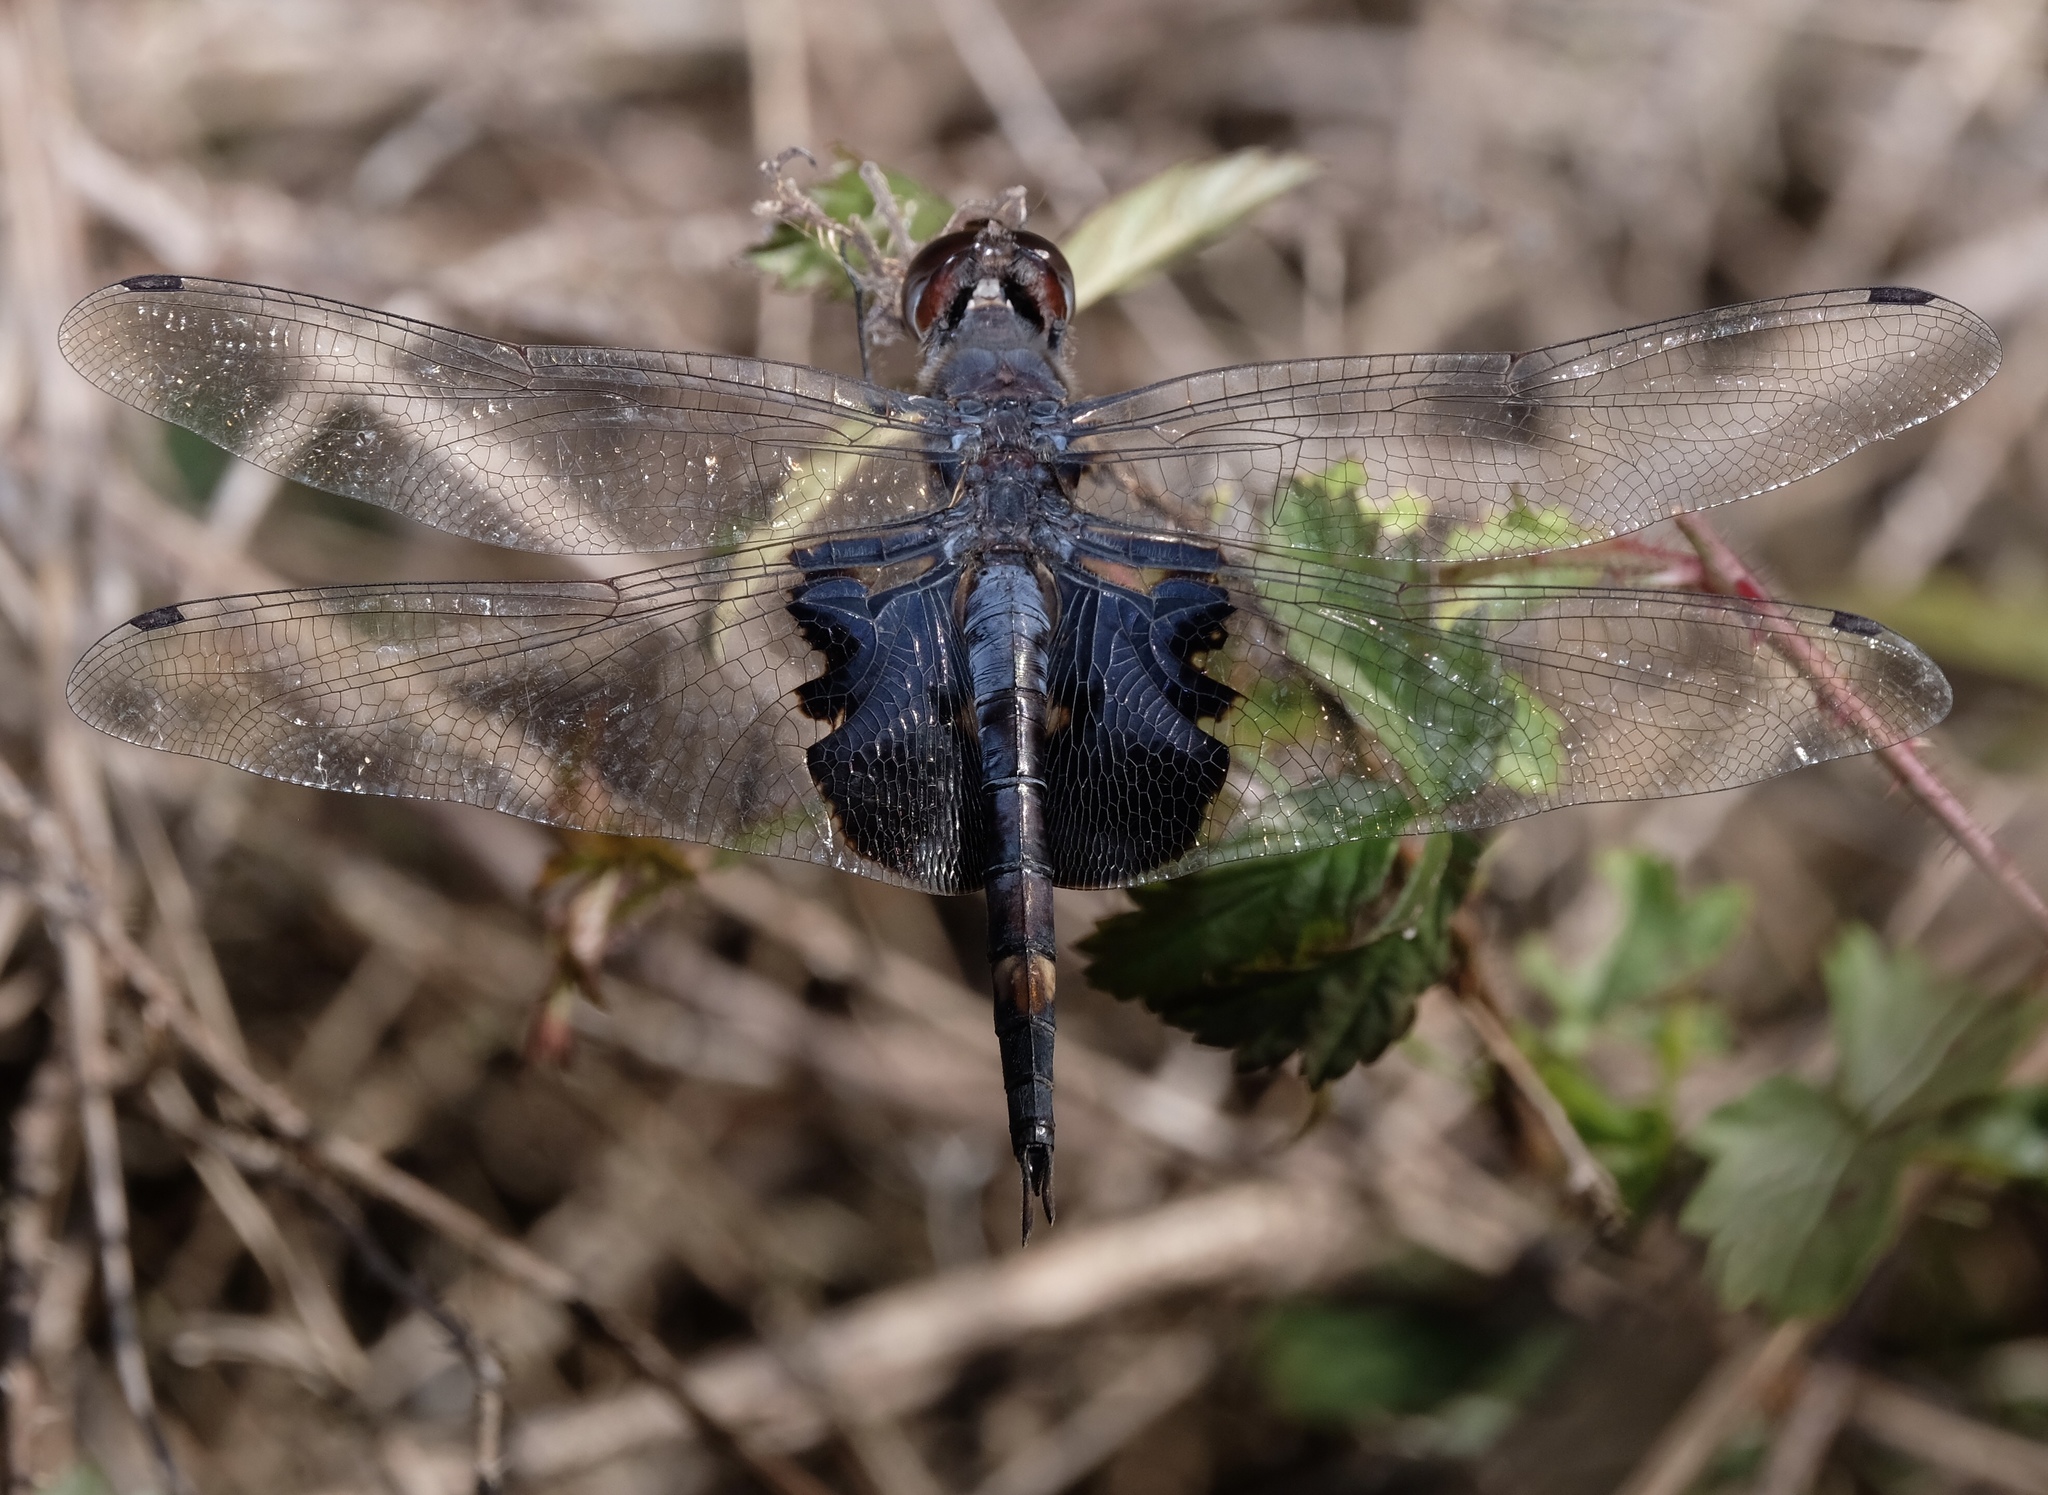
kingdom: Animalia
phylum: Arthropoda
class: Insecta
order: Odonata
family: Libellulidae
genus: Tramea
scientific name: Tramea lacerata
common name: Black saddlebags
